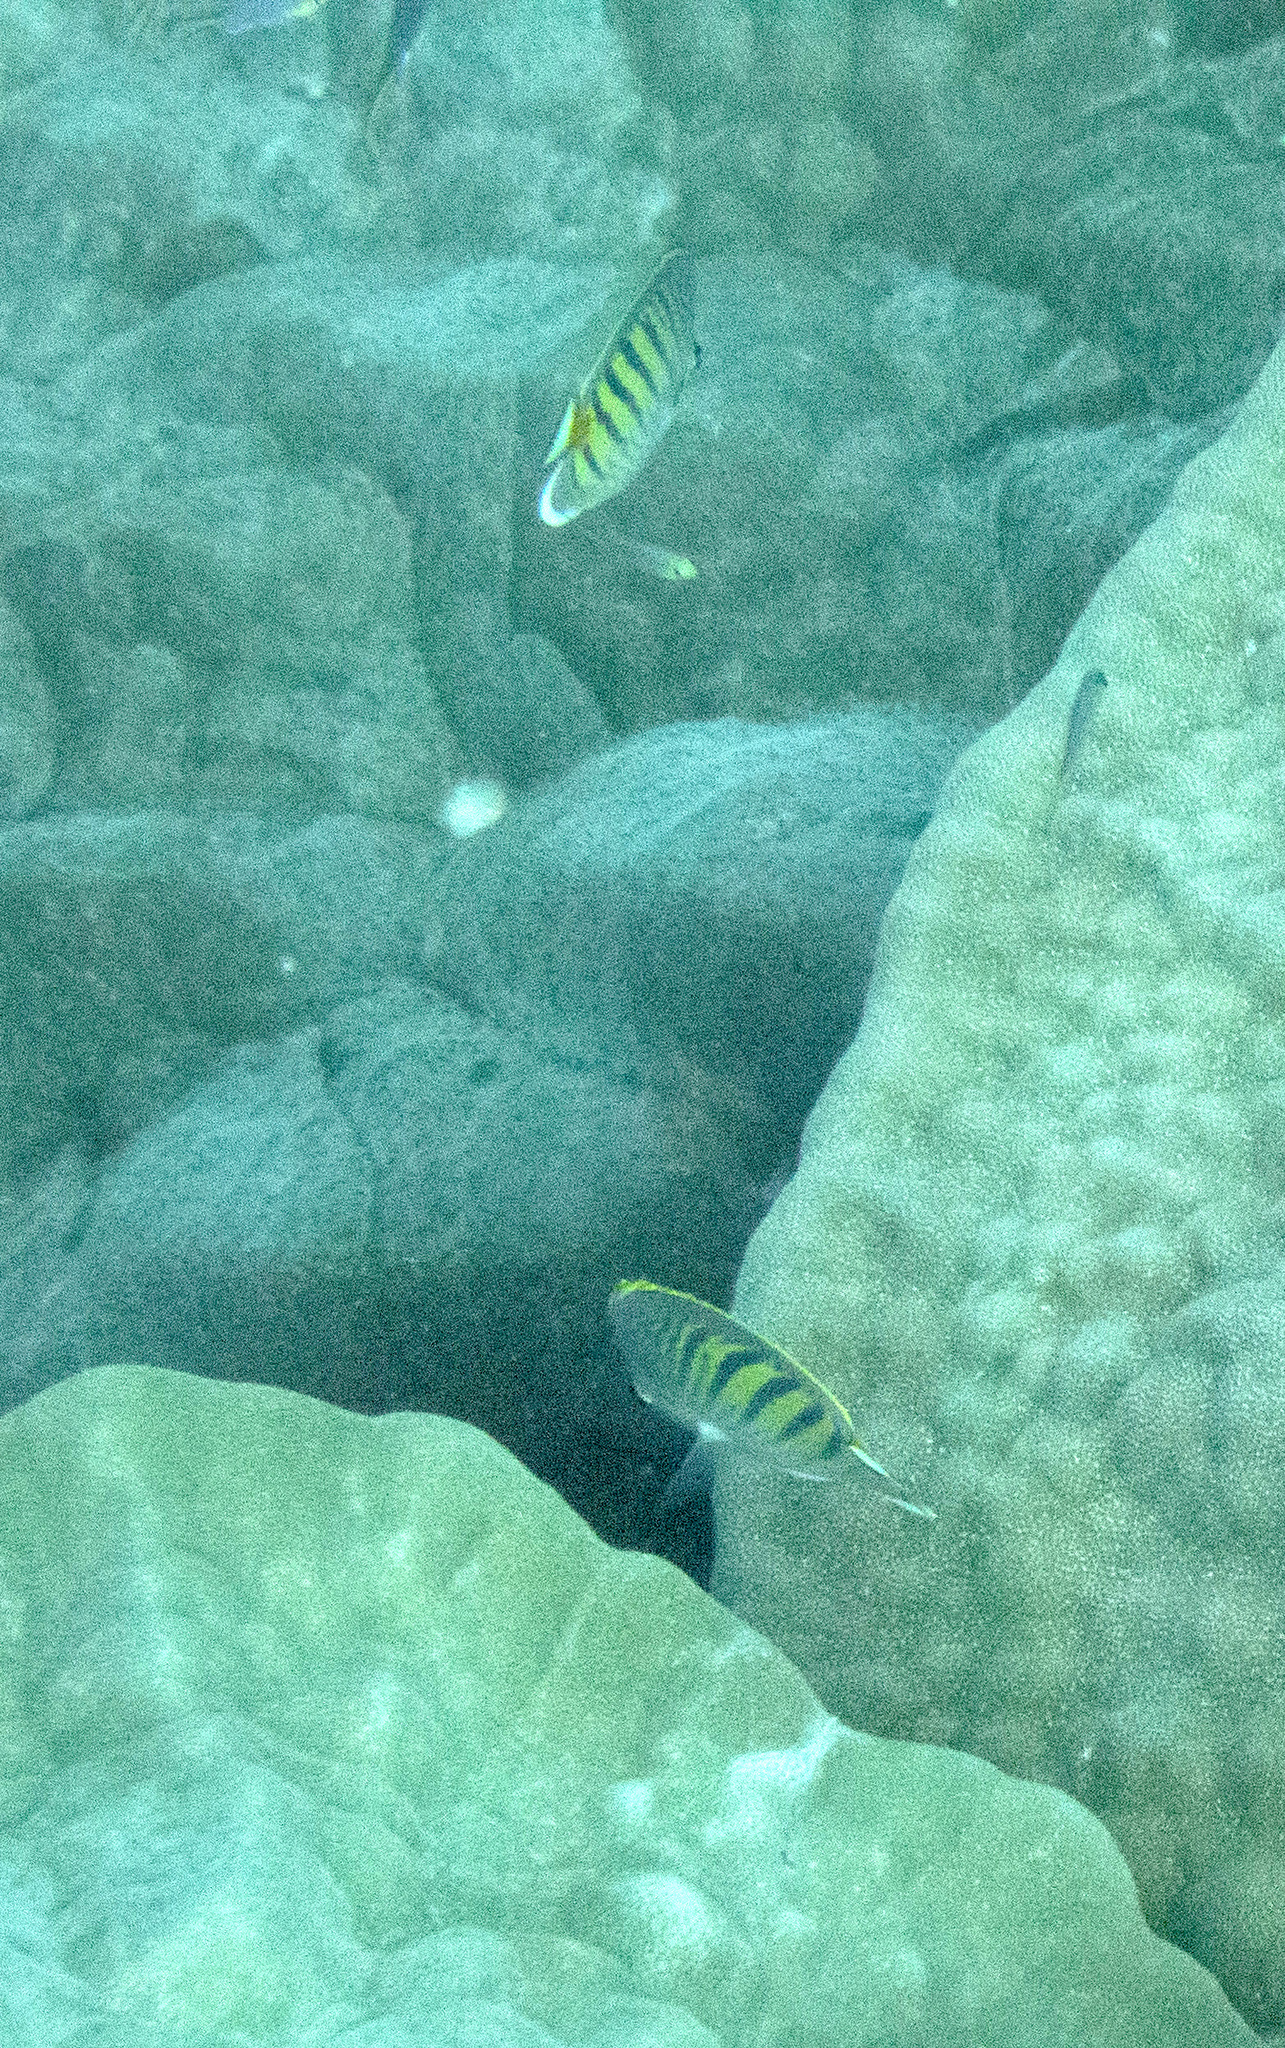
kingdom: Animalia
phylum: Chordata
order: Perciformes
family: Chaetodontidae
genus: Chaetodon
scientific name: Chaetodon pelewensis
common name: Dot-and-dash butterflyfish
